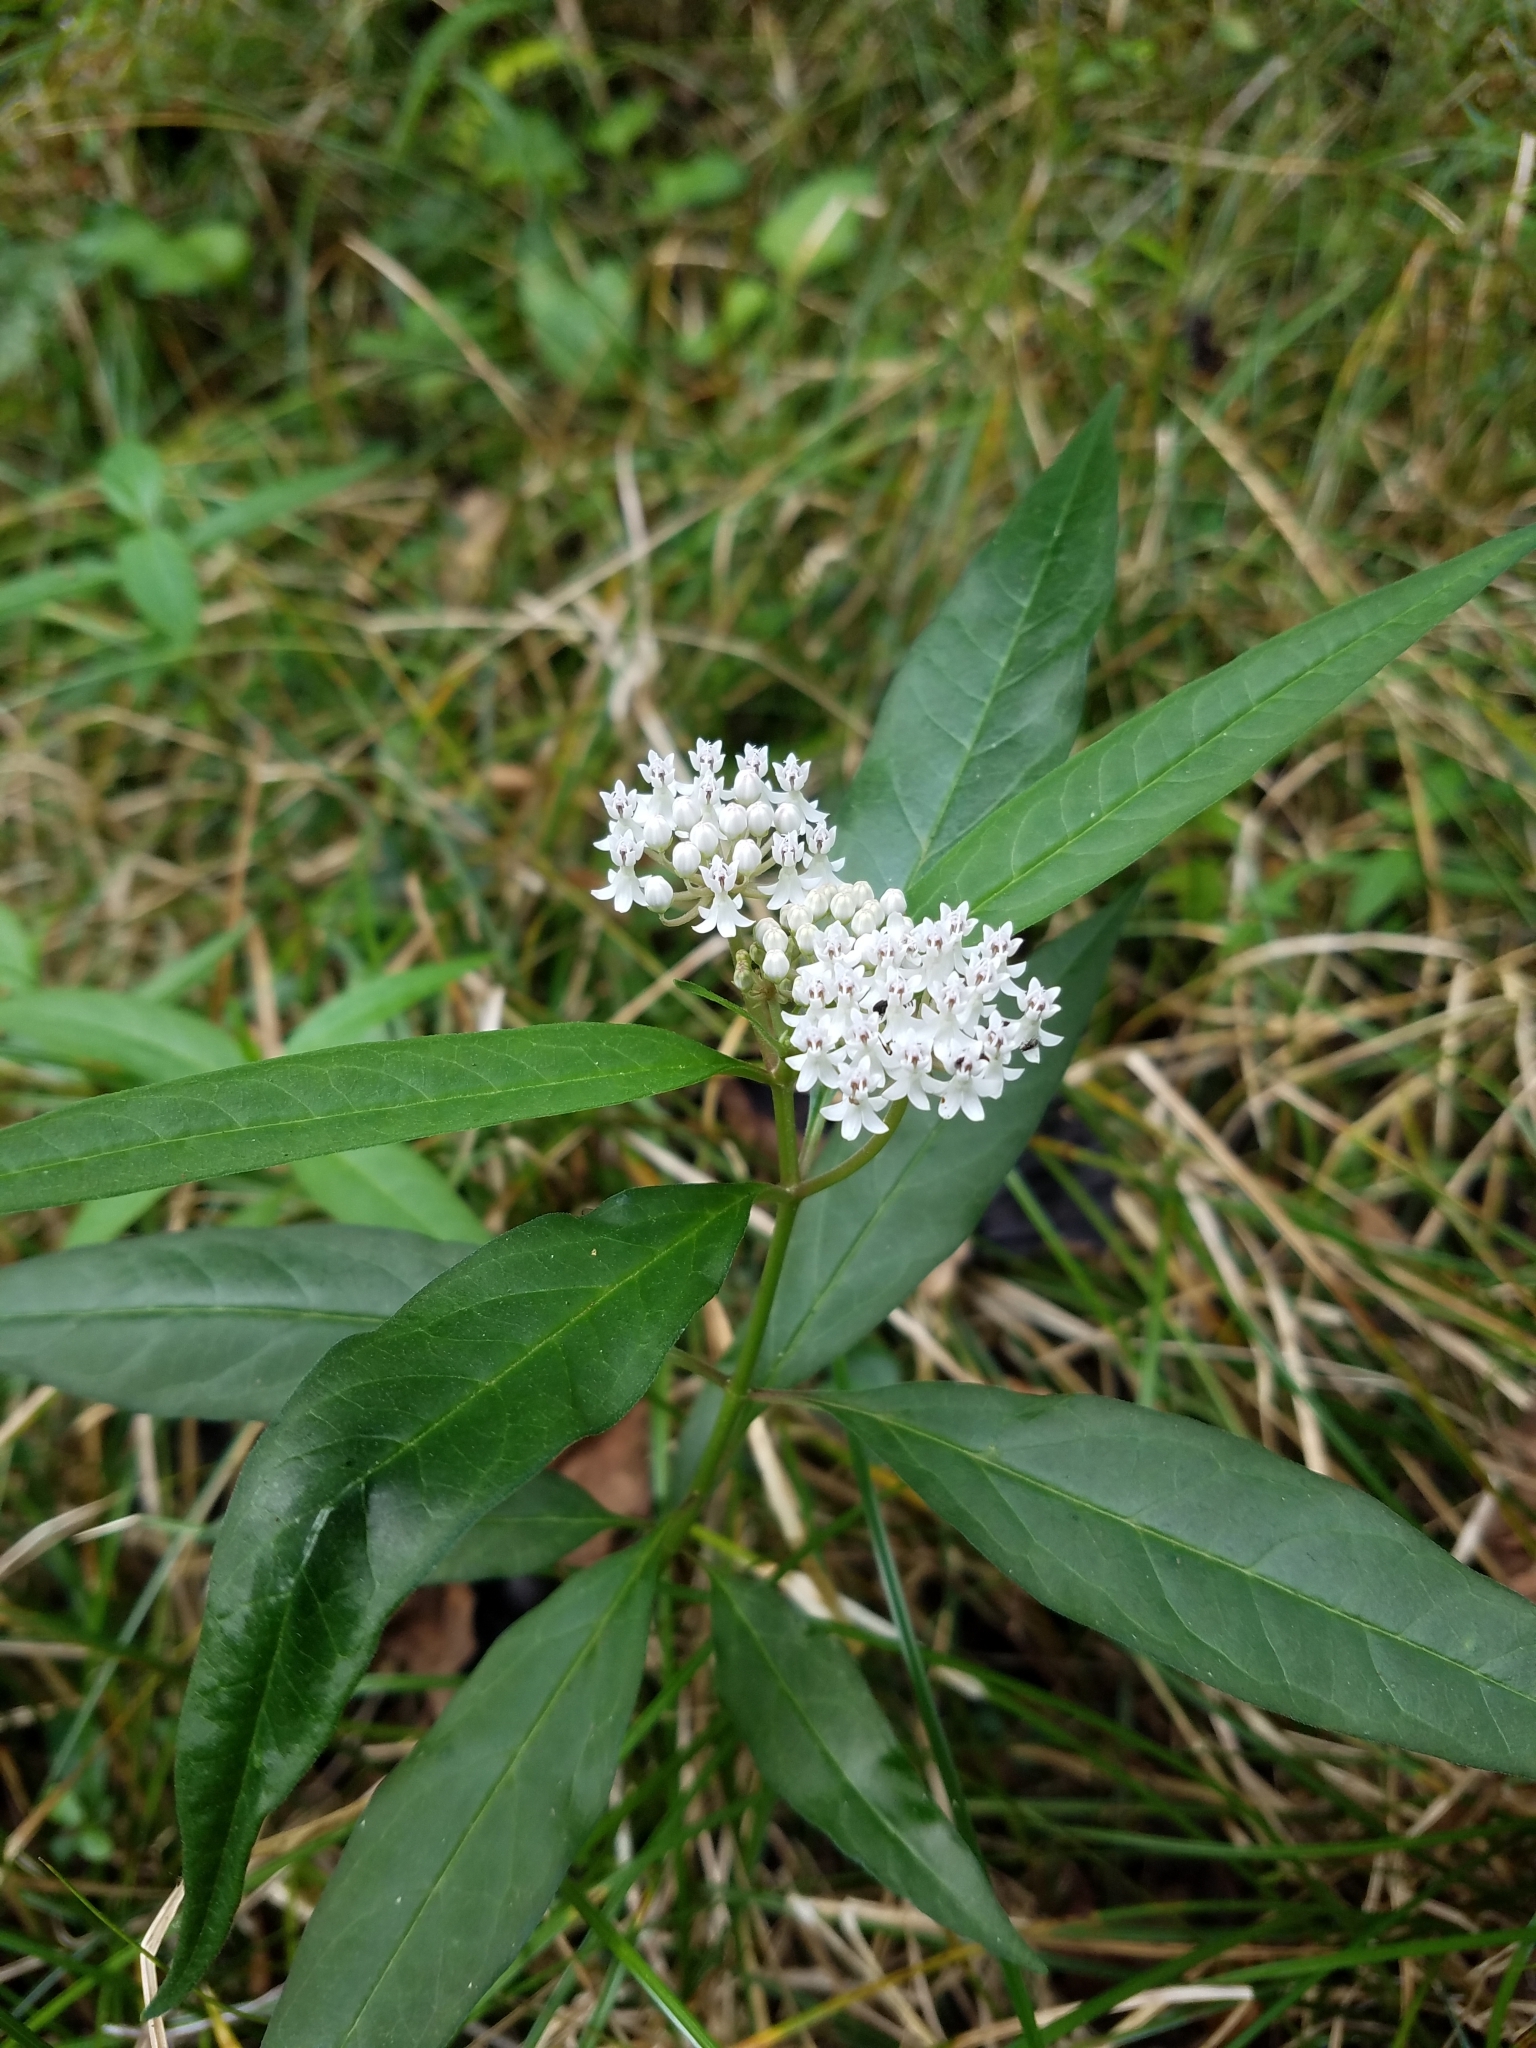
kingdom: Plantae
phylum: Tracheophyta
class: Magnoliopsida
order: Gentianales
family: Apocynaceae
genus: Asclepias
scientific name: Asclepias perennis
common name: Smooth-seed milkweed
